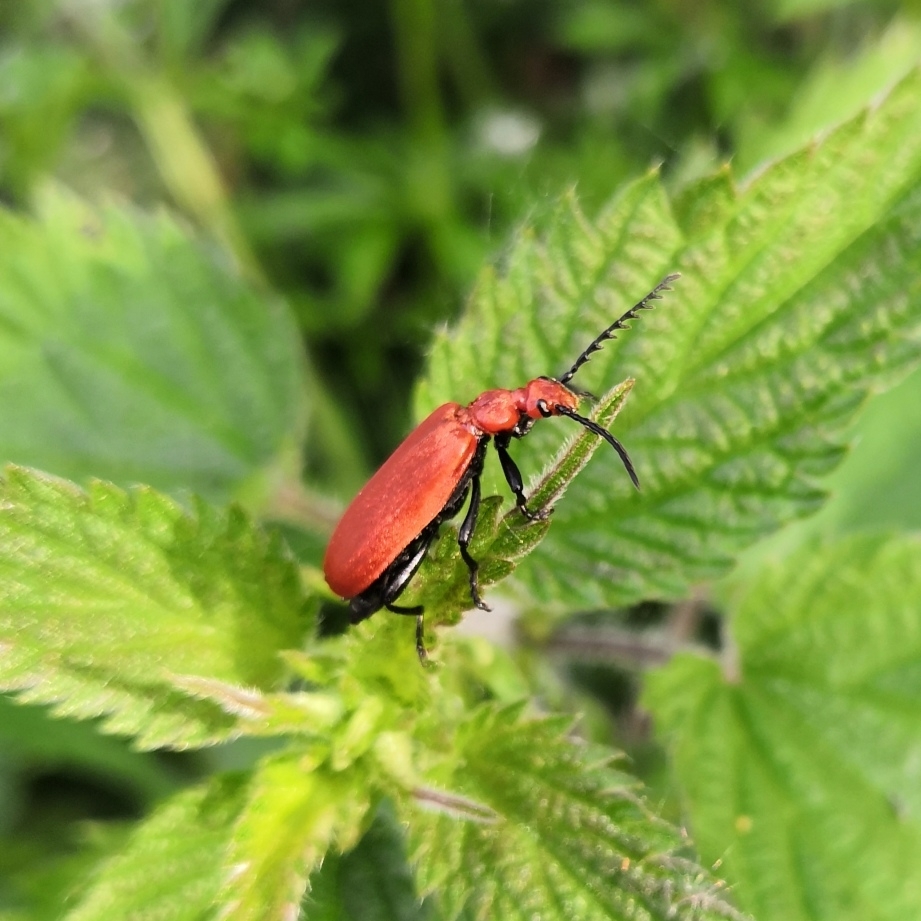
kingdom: Animalia
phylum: Arthropoda
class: Insecta
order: Coleoptera
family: Pyrochroidae
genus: Pyrochroa
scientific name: Pyrochroa serraticornis
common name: Red-headed cardinal beetle
